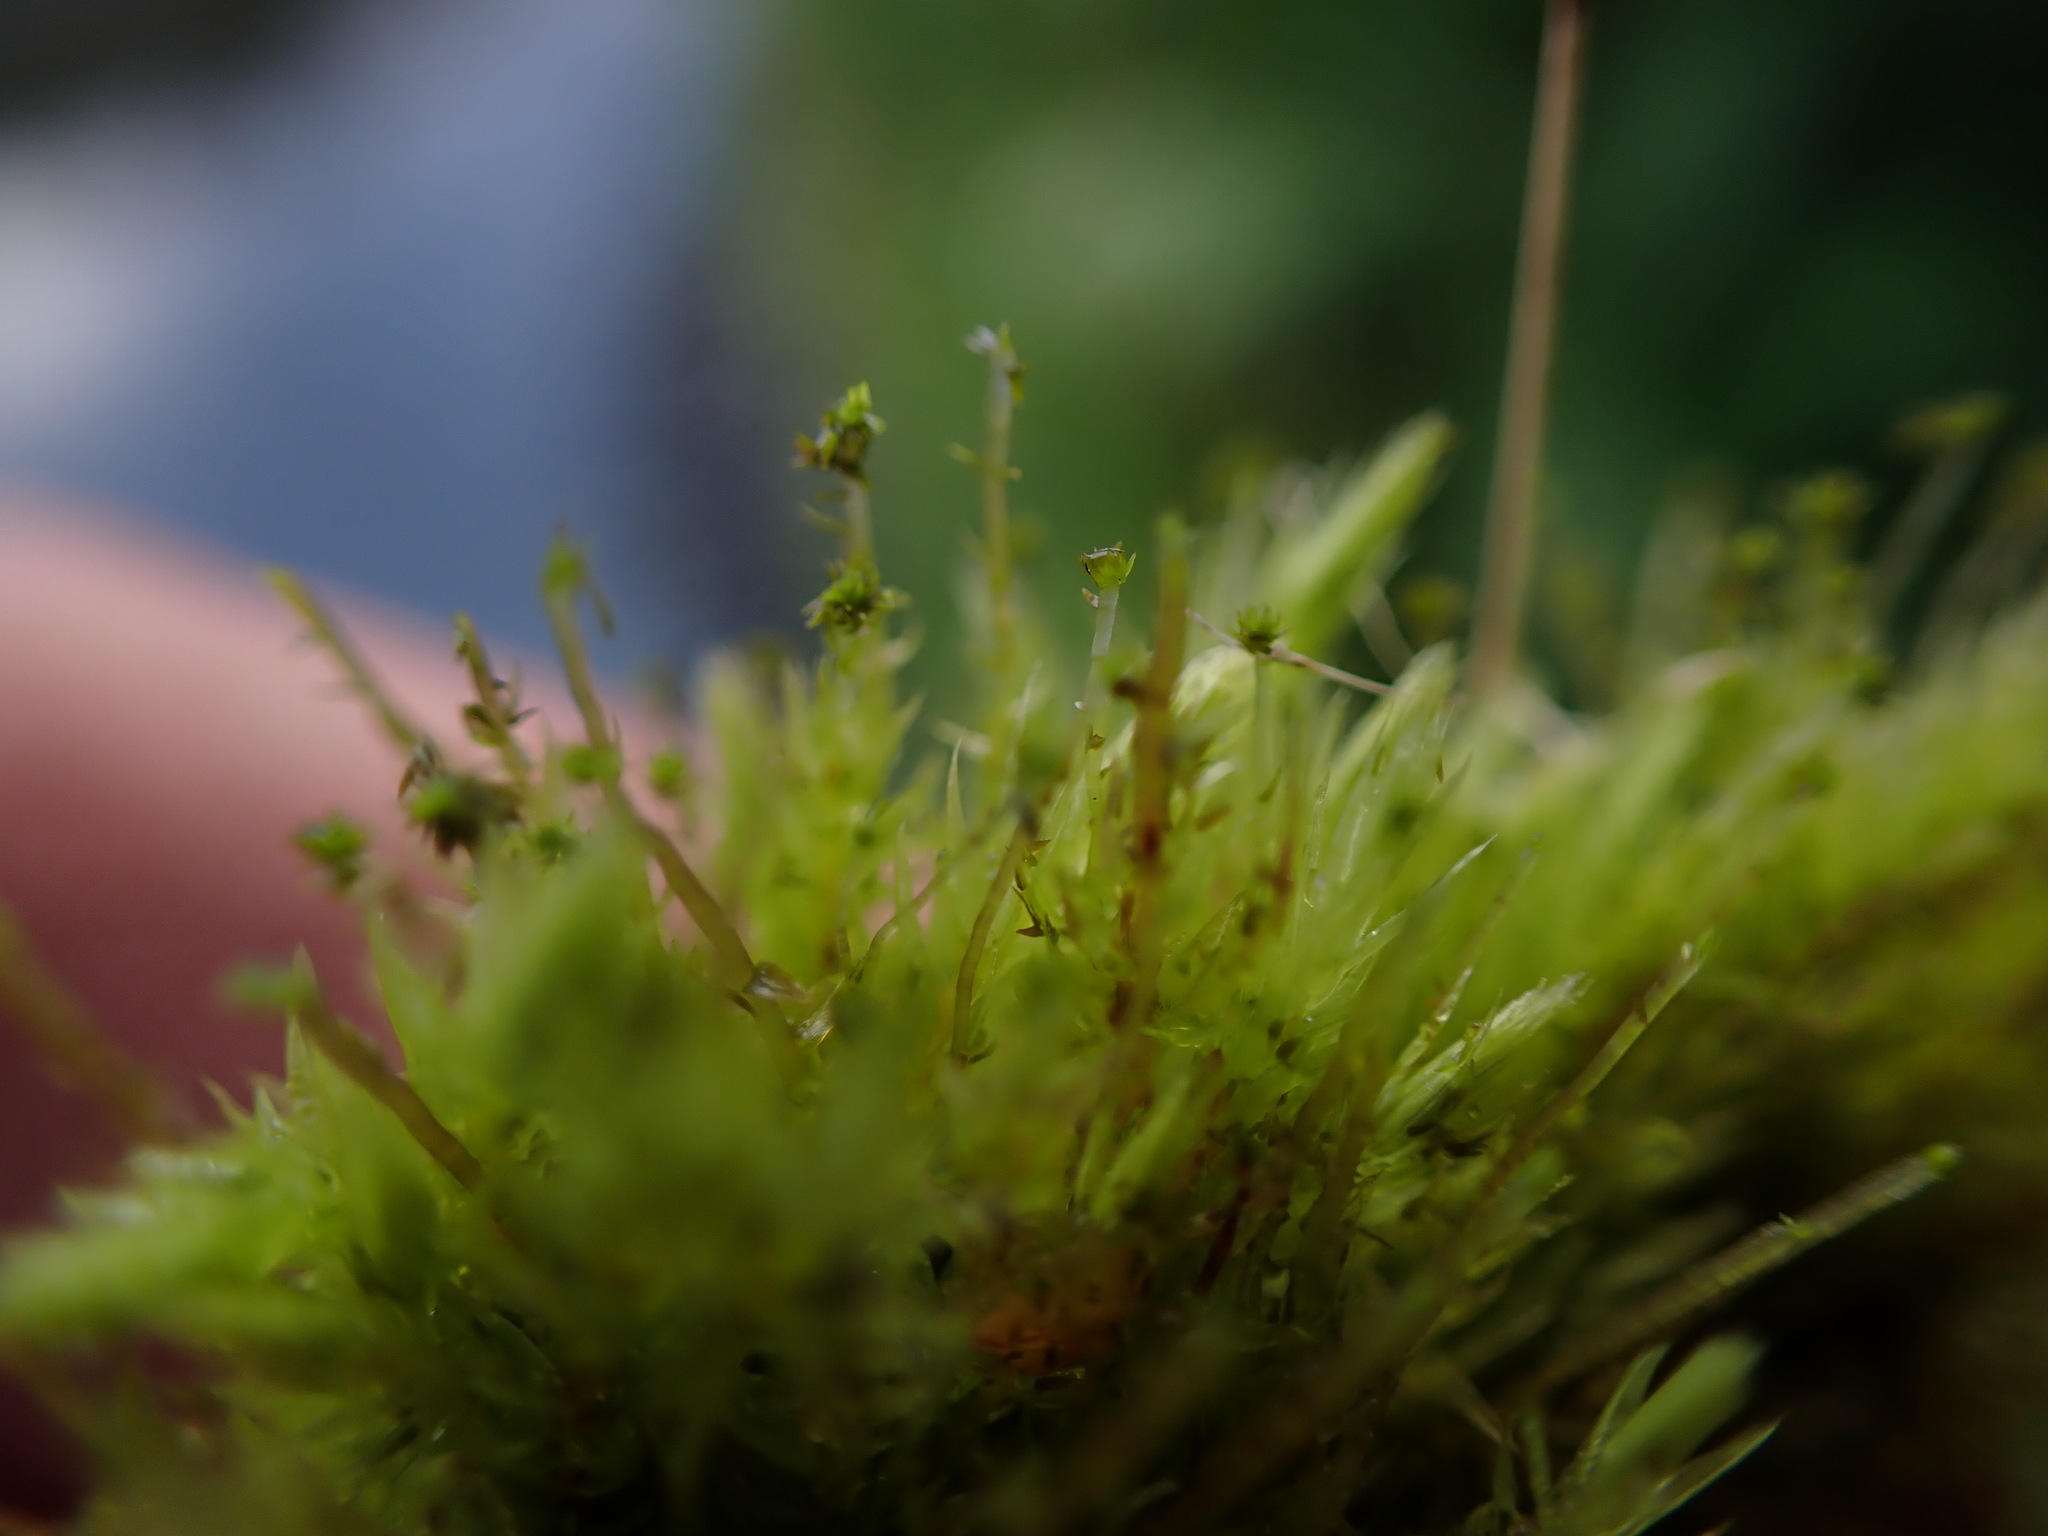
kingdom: Plantae
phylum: Bryophyta
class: Bryopsida
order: Aulacomniales
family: Aulacomniaceae
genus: Aulacomnium
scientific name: Aulacomnium palustre
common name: Bog groove-moss
